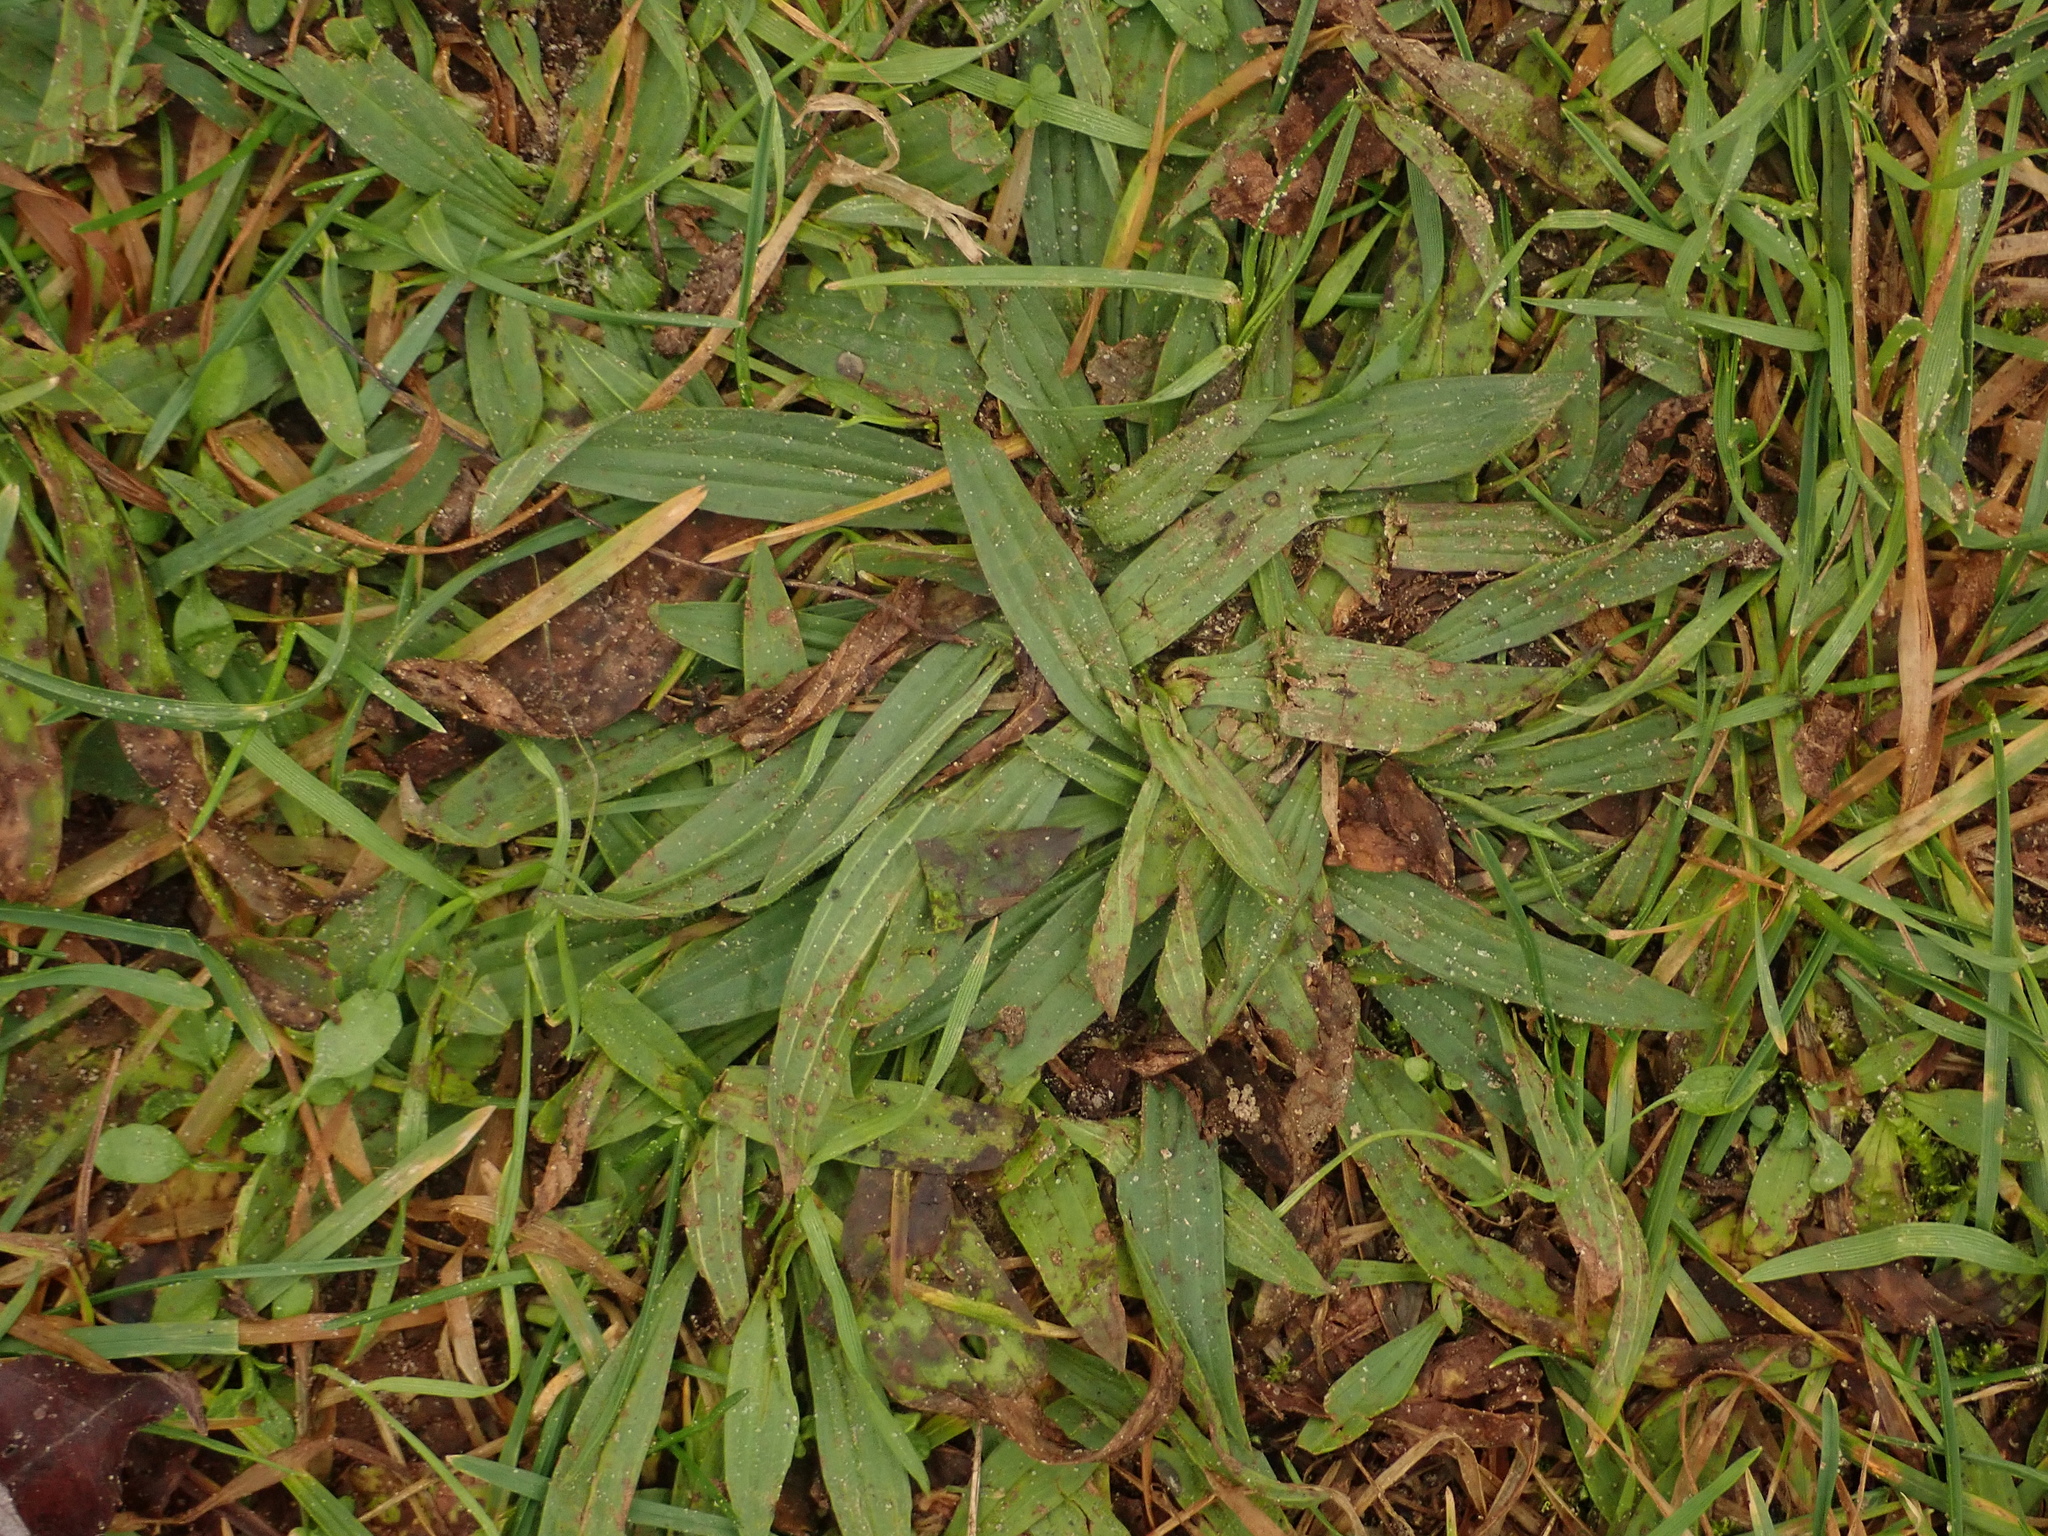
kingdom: Plantae
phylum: Tracheophyta
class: Magnoliopsida
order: Lamiales
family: Plantaginaceae
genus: Plantago
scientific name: Plantago lanceolata
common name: Ribwort plantain
